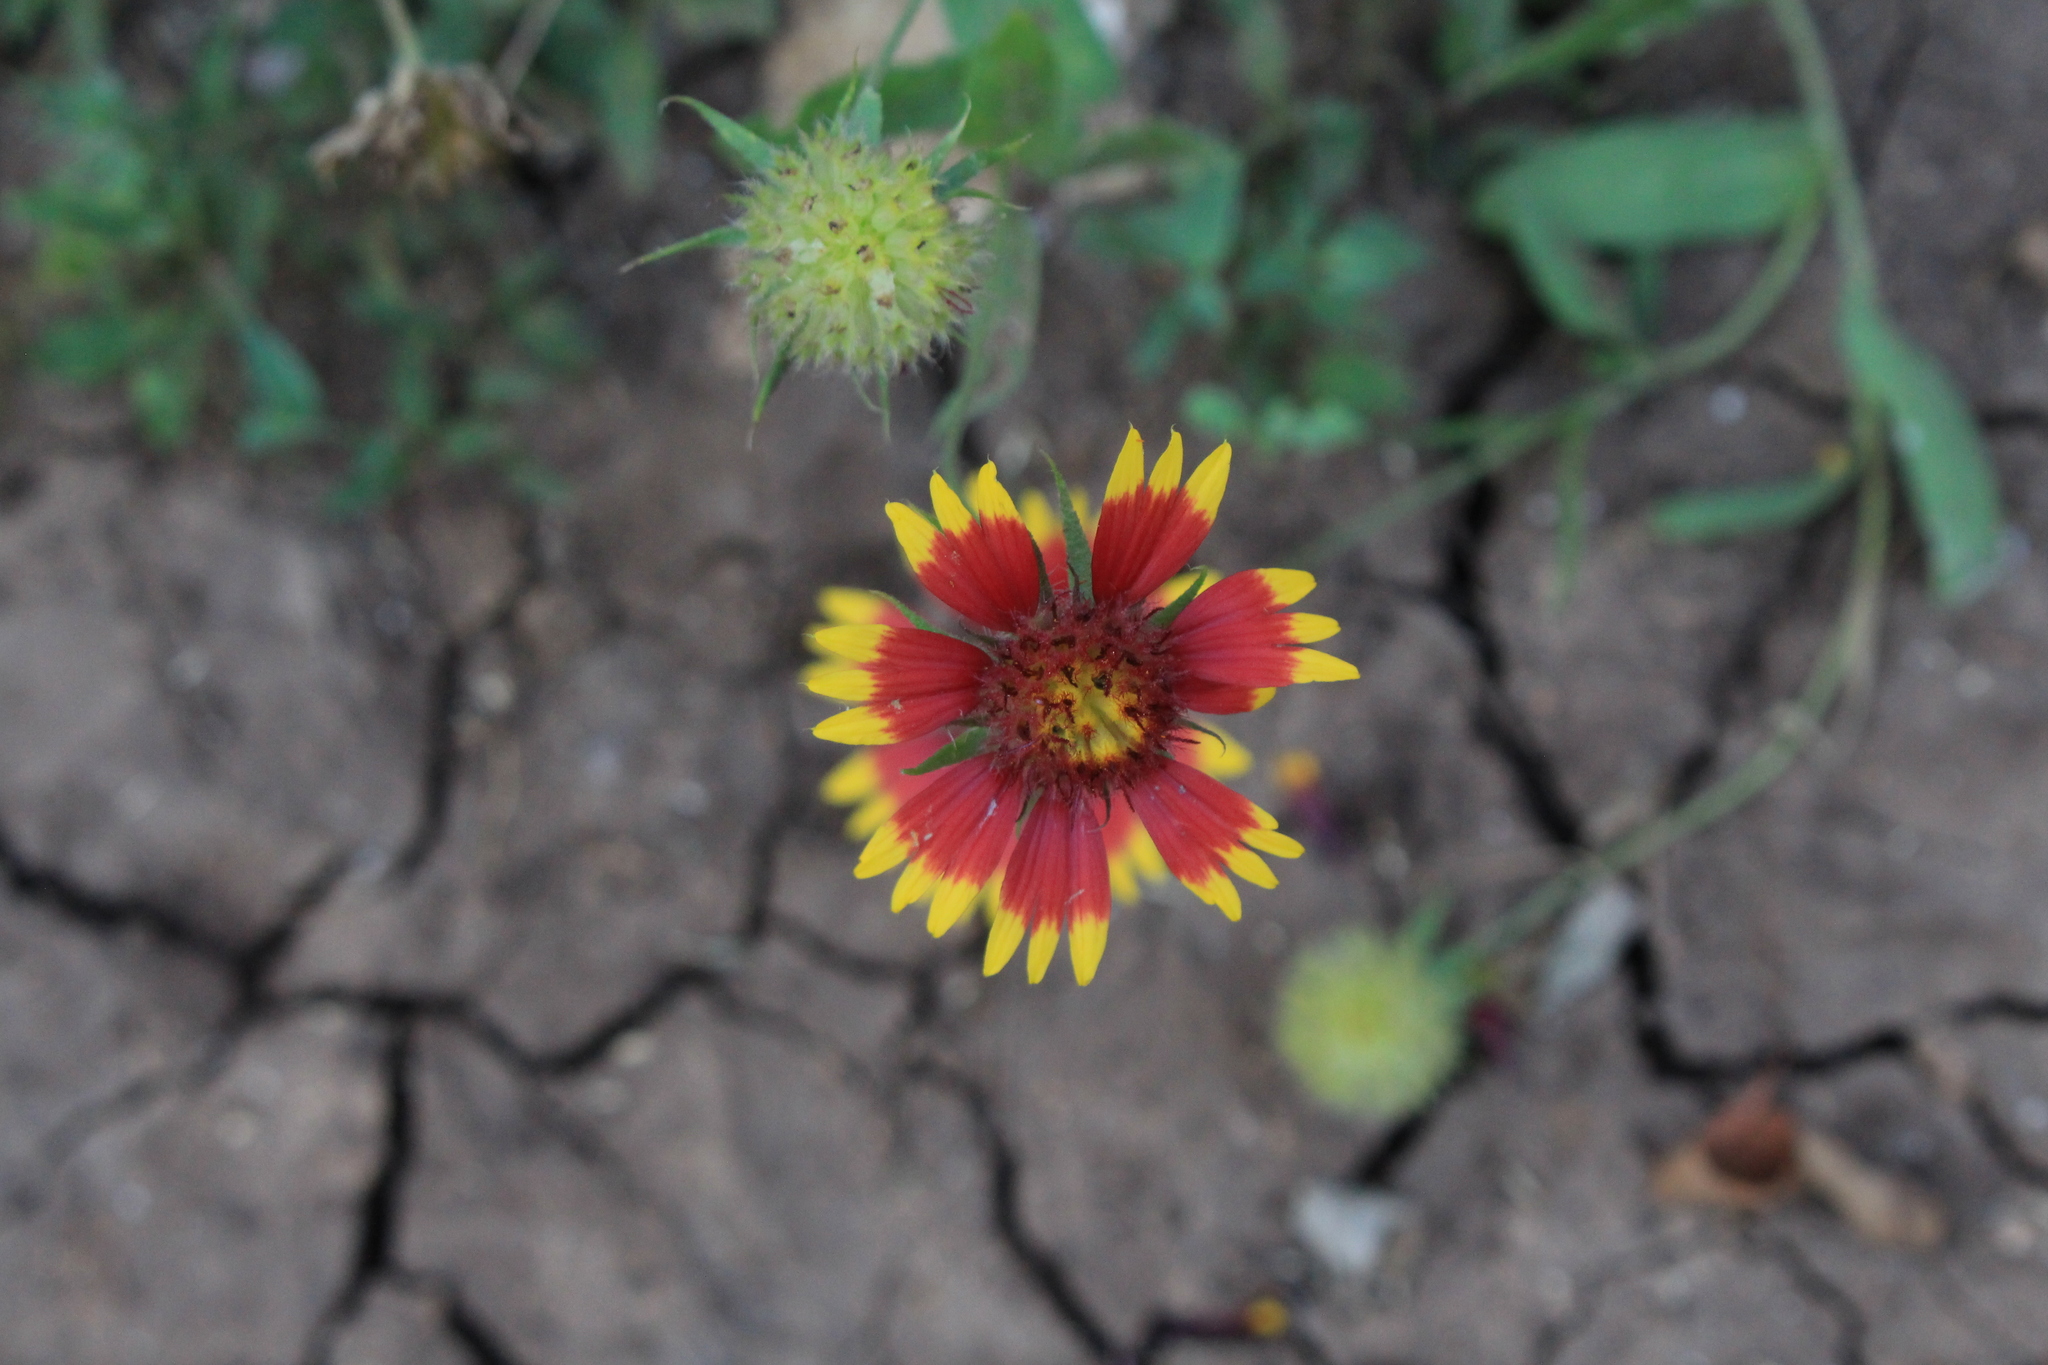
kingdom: Plantae
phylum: Tracheophyta
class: Magnoliopsida
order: Asterales
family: Asteraceae
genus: Gaillardia
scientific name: Gaillardia pulchella
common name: Firewheel
